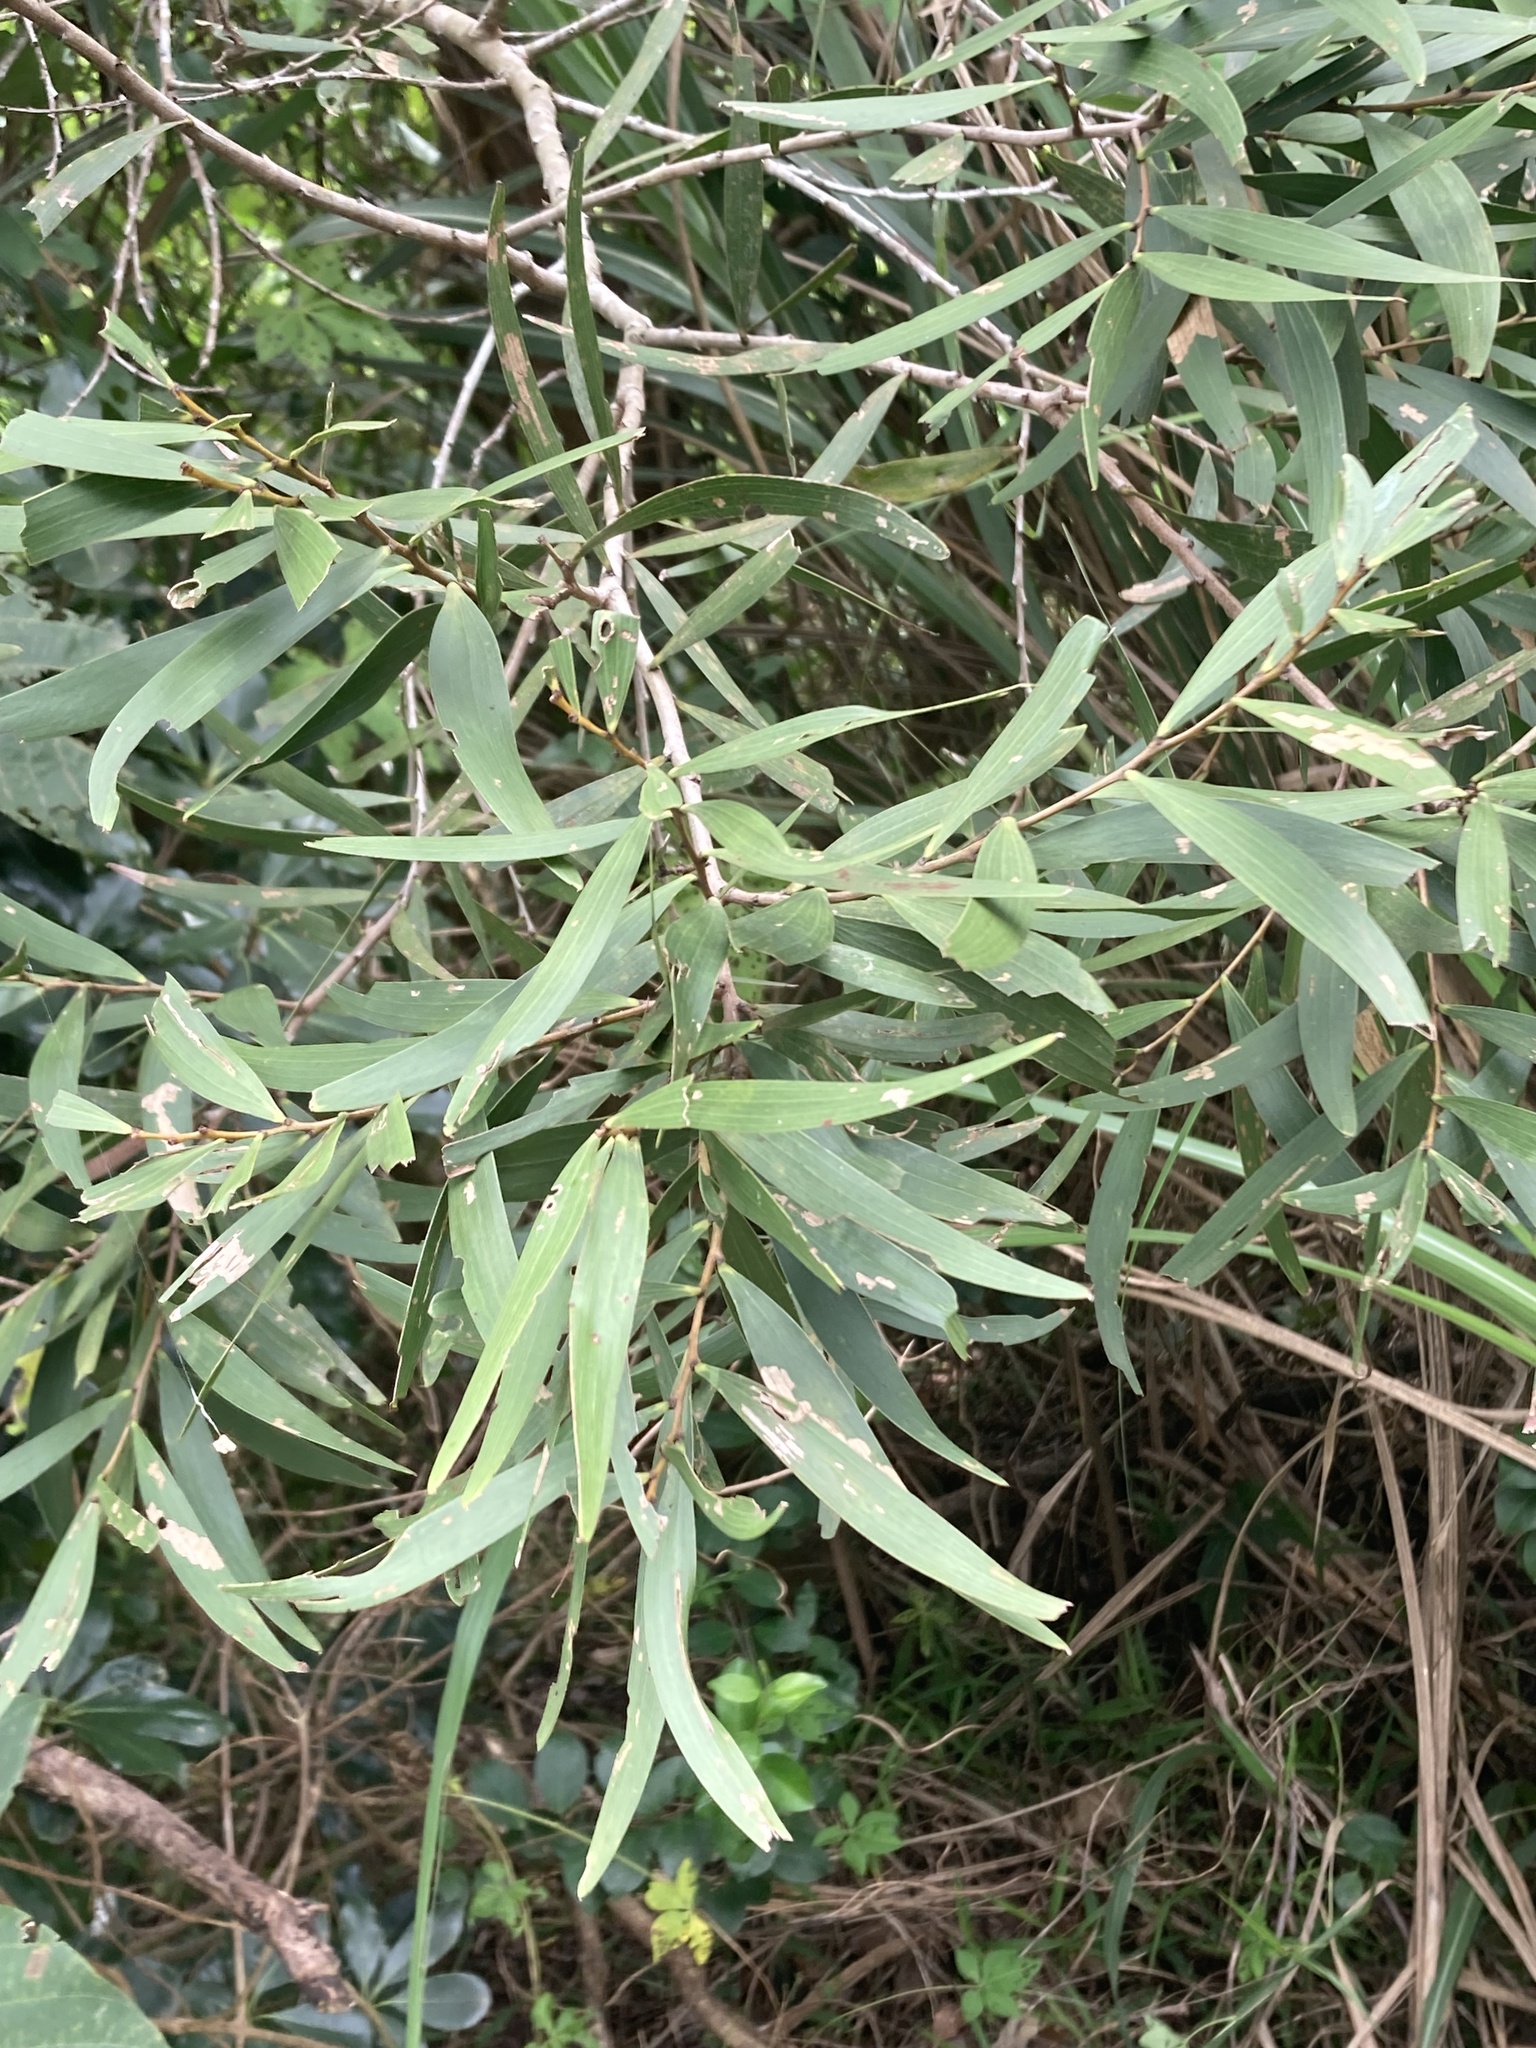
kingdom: Plantae
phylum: Tracheophyta
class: Magnoliopsida
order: Fabales
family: Fabaceae
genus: Acacia
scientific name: Acacia confusa
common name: Formosan koa
